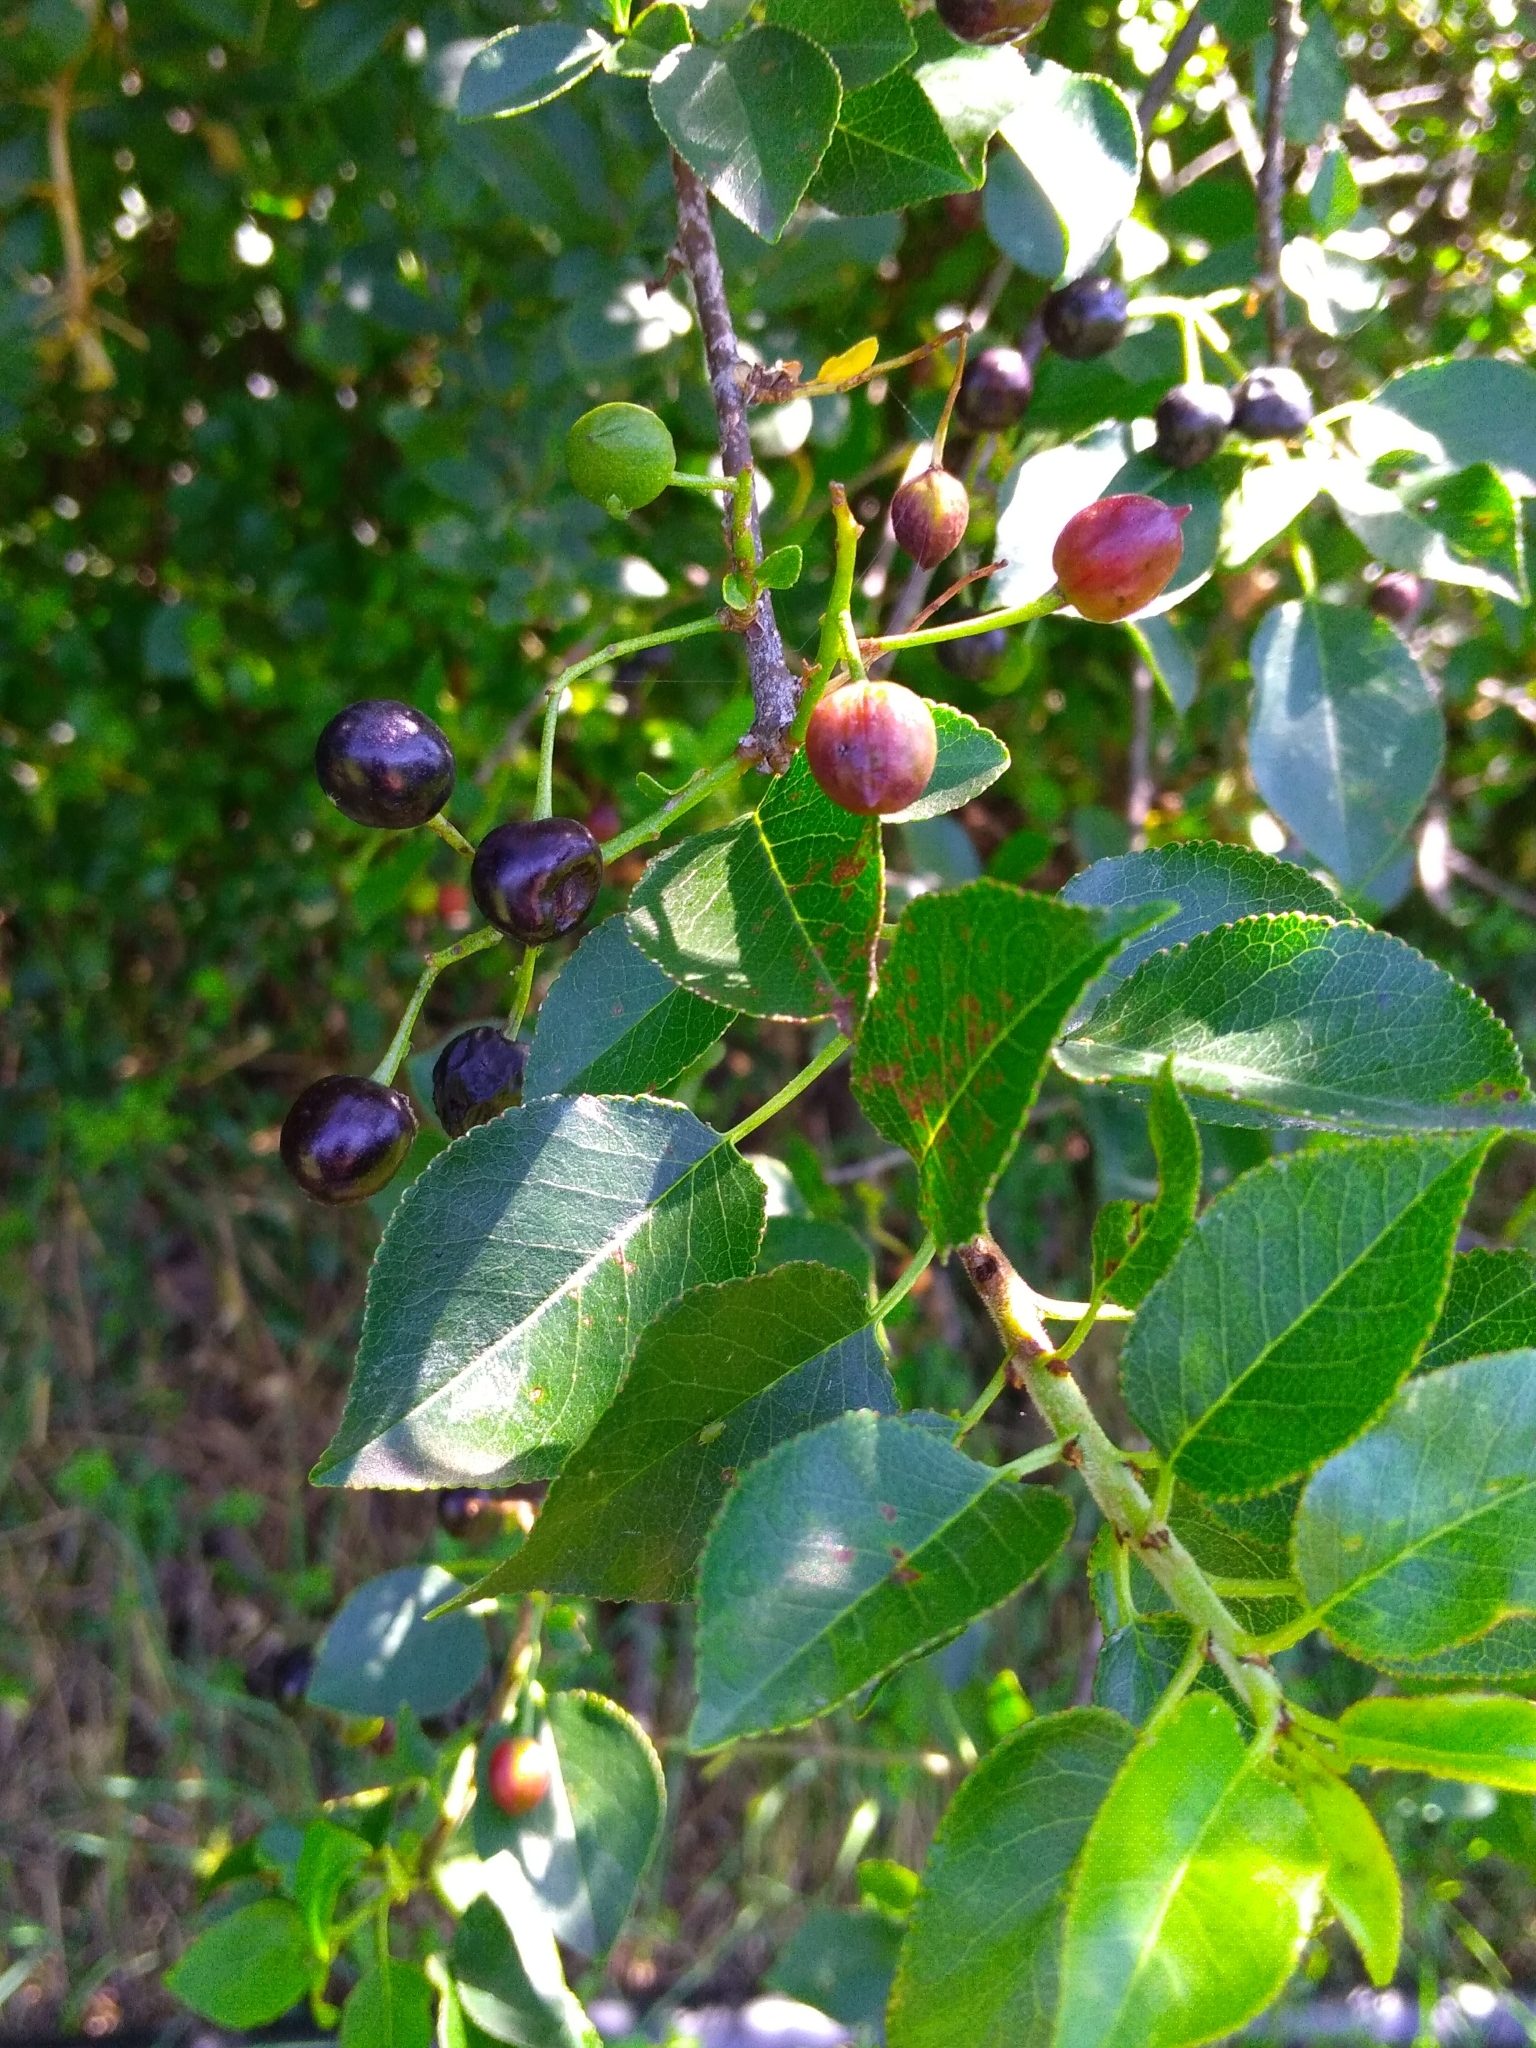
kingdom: Plantae
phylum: Tracheophyta
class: Magnoliopsida
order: Rosales
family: Rosaceae
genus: Prunus
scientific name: Prunus mahaleb
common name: Mahaleb cherry
